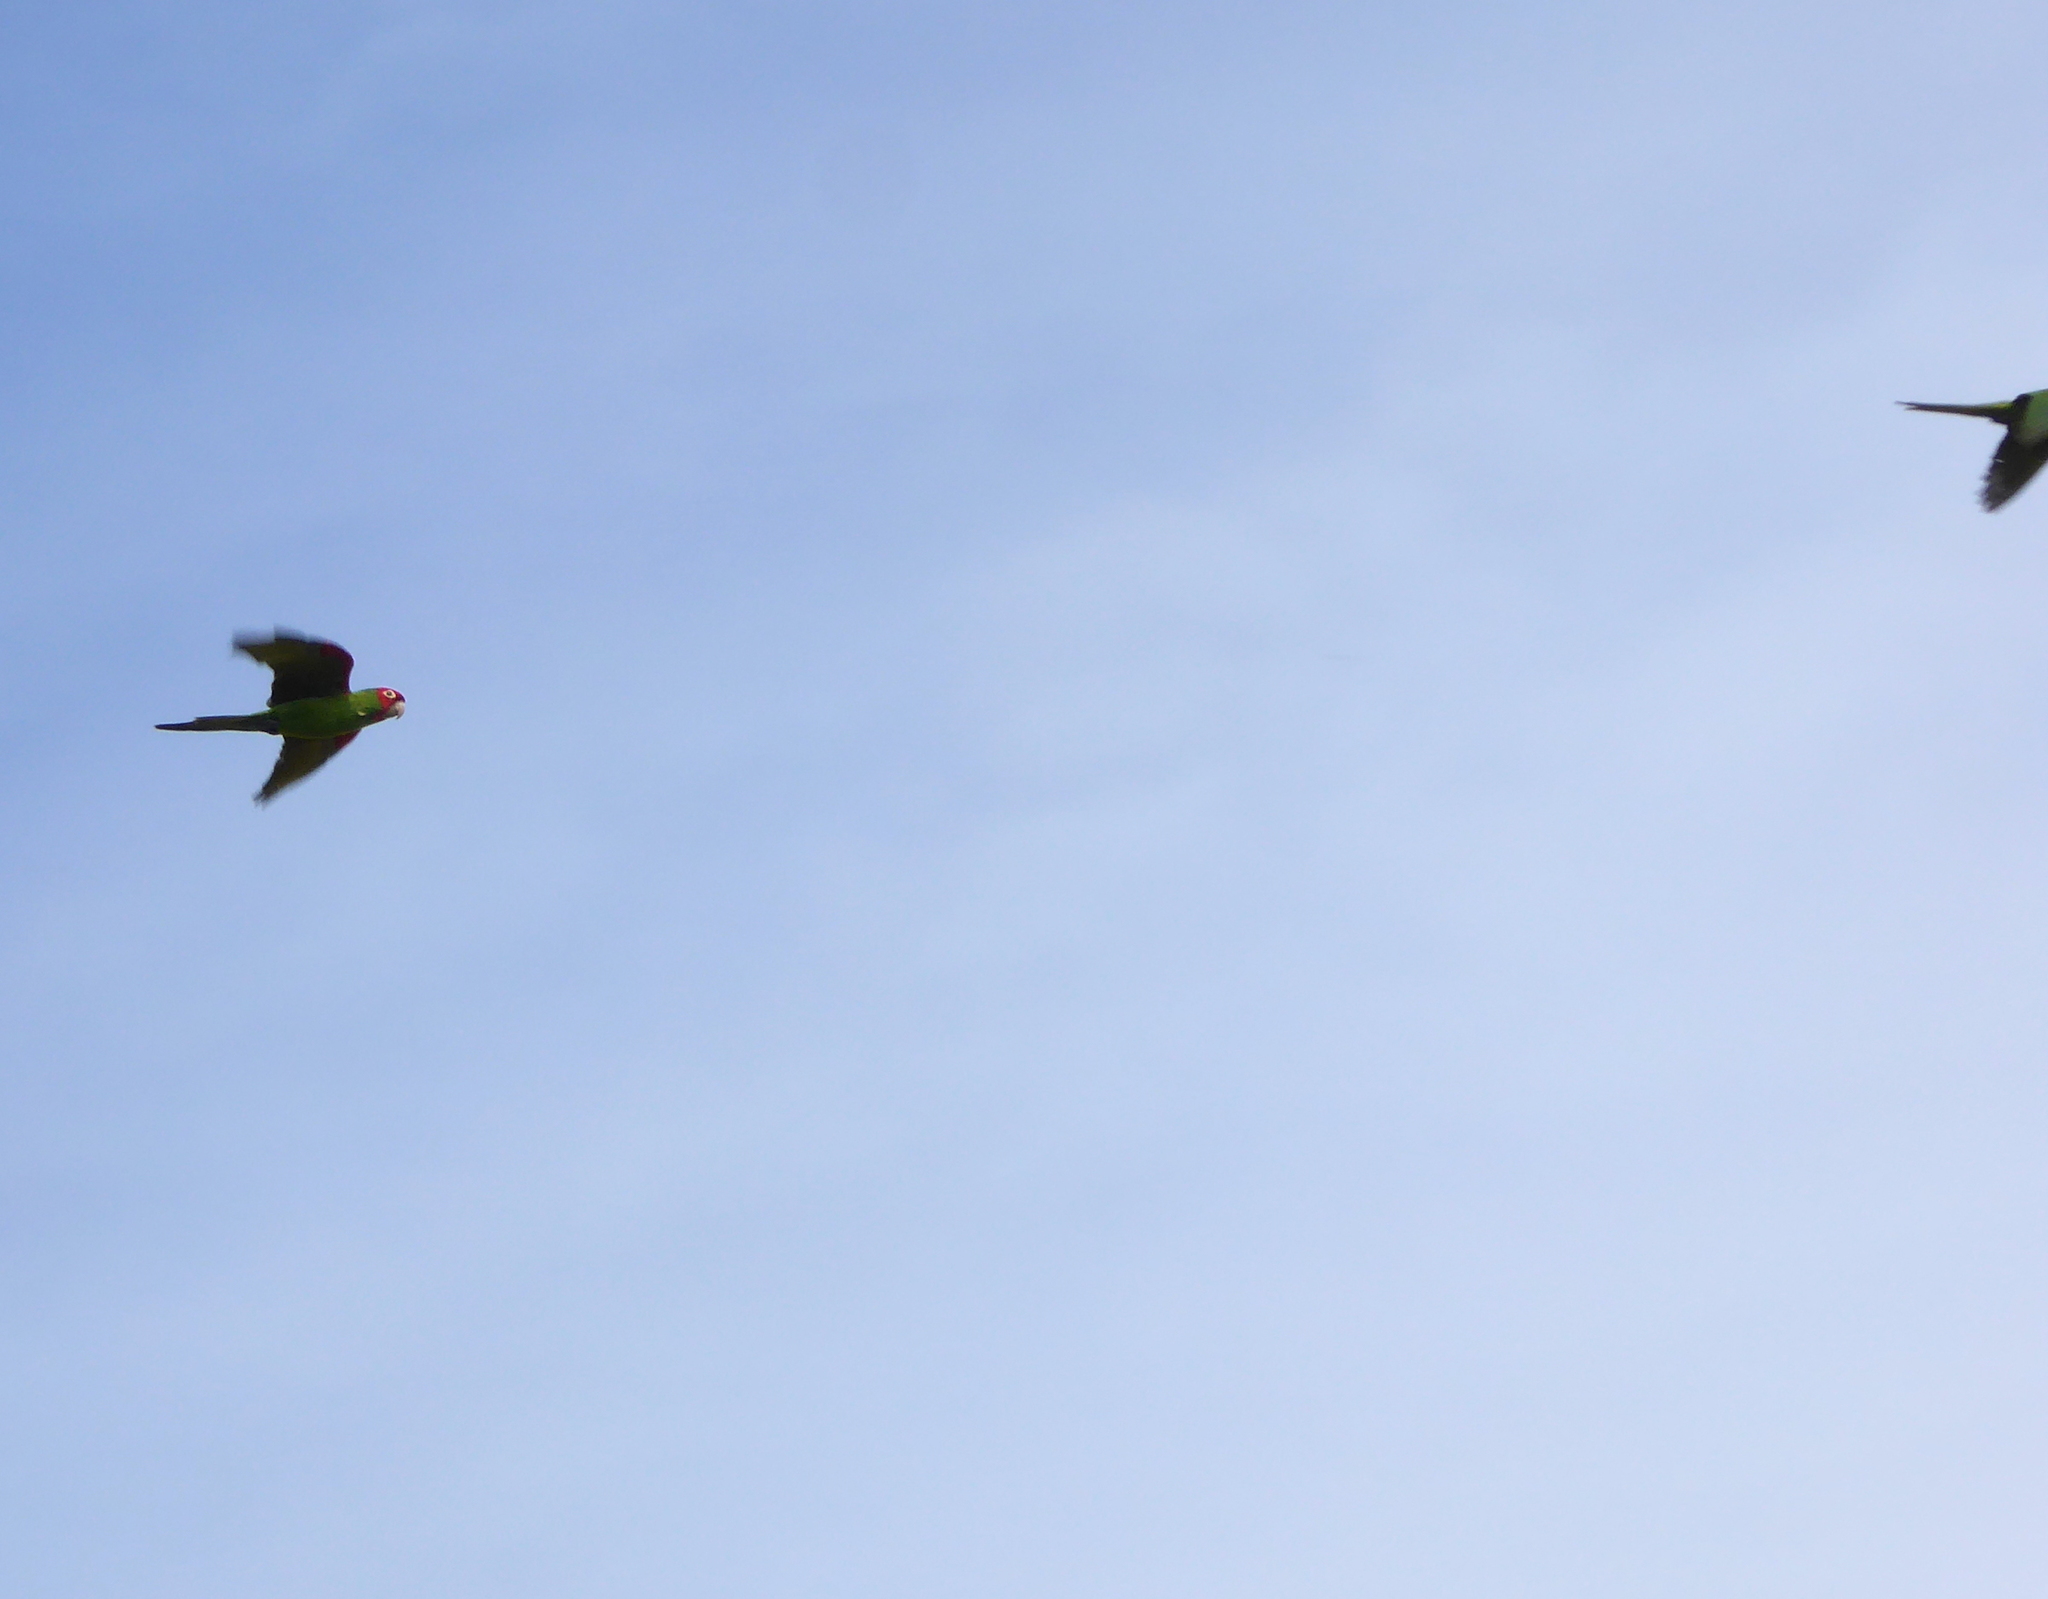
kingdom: Animalia
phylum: Chordata
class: Aves
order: Psittaciformes
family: Psittacidae
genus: Aratinga
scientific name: Aratinga erythrogenys
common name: Red-masked parakeet
